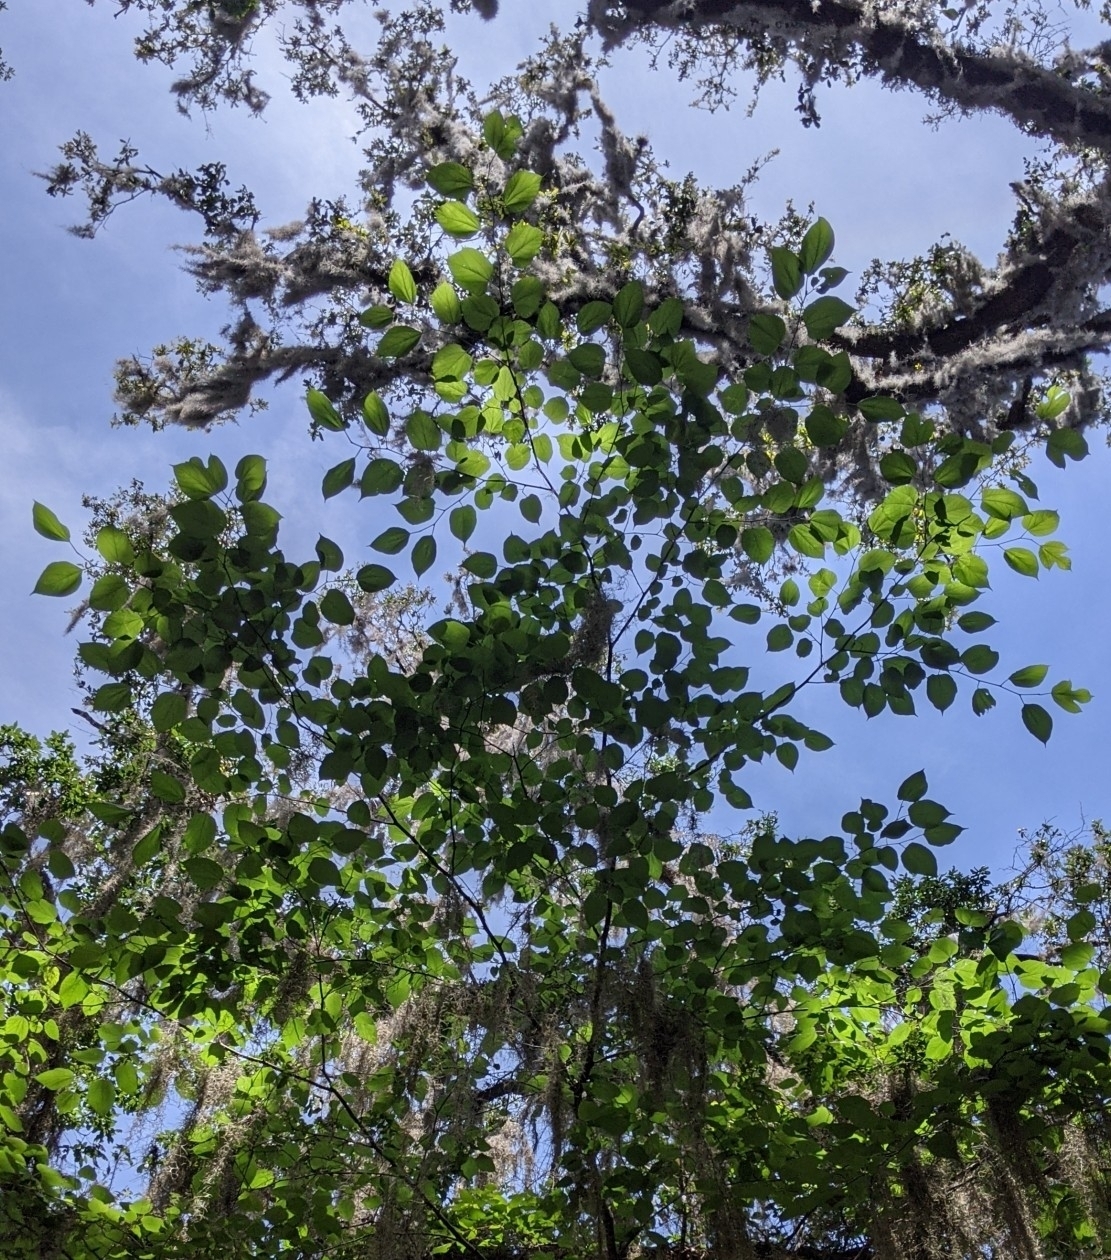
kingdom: Plantae
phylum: Tracheophyta
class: Magnoliopsida
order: Rosales
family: Moraceae
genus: Morus
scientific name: Morus rubra
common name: Red mulberry
